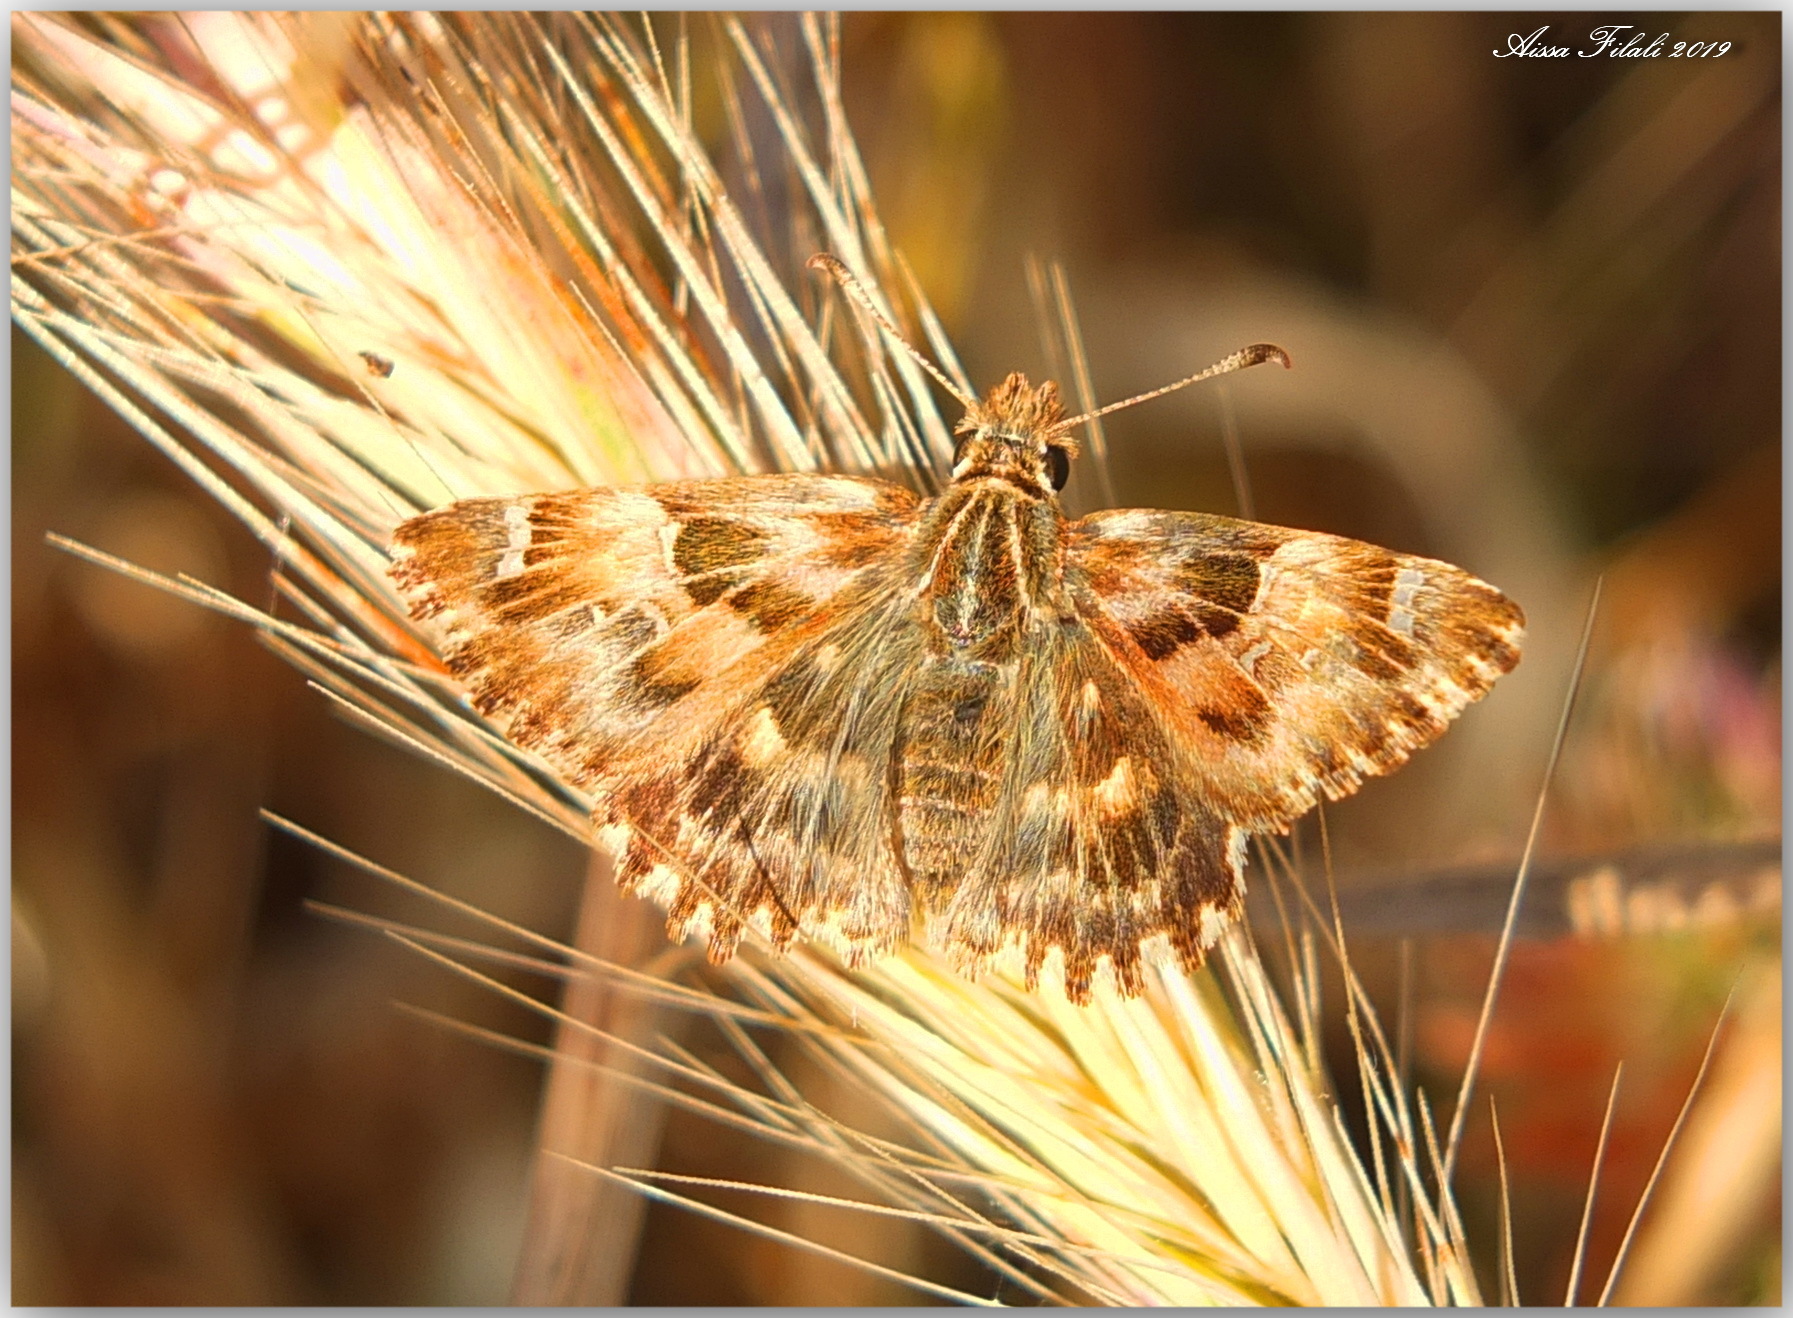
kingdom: Animalia
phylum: Arthropoda
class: Insecta
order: Lepidoptera
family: Hesperiidae
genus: Carcharodus
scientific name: Carcharodus alceae
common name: Mallow skipper
